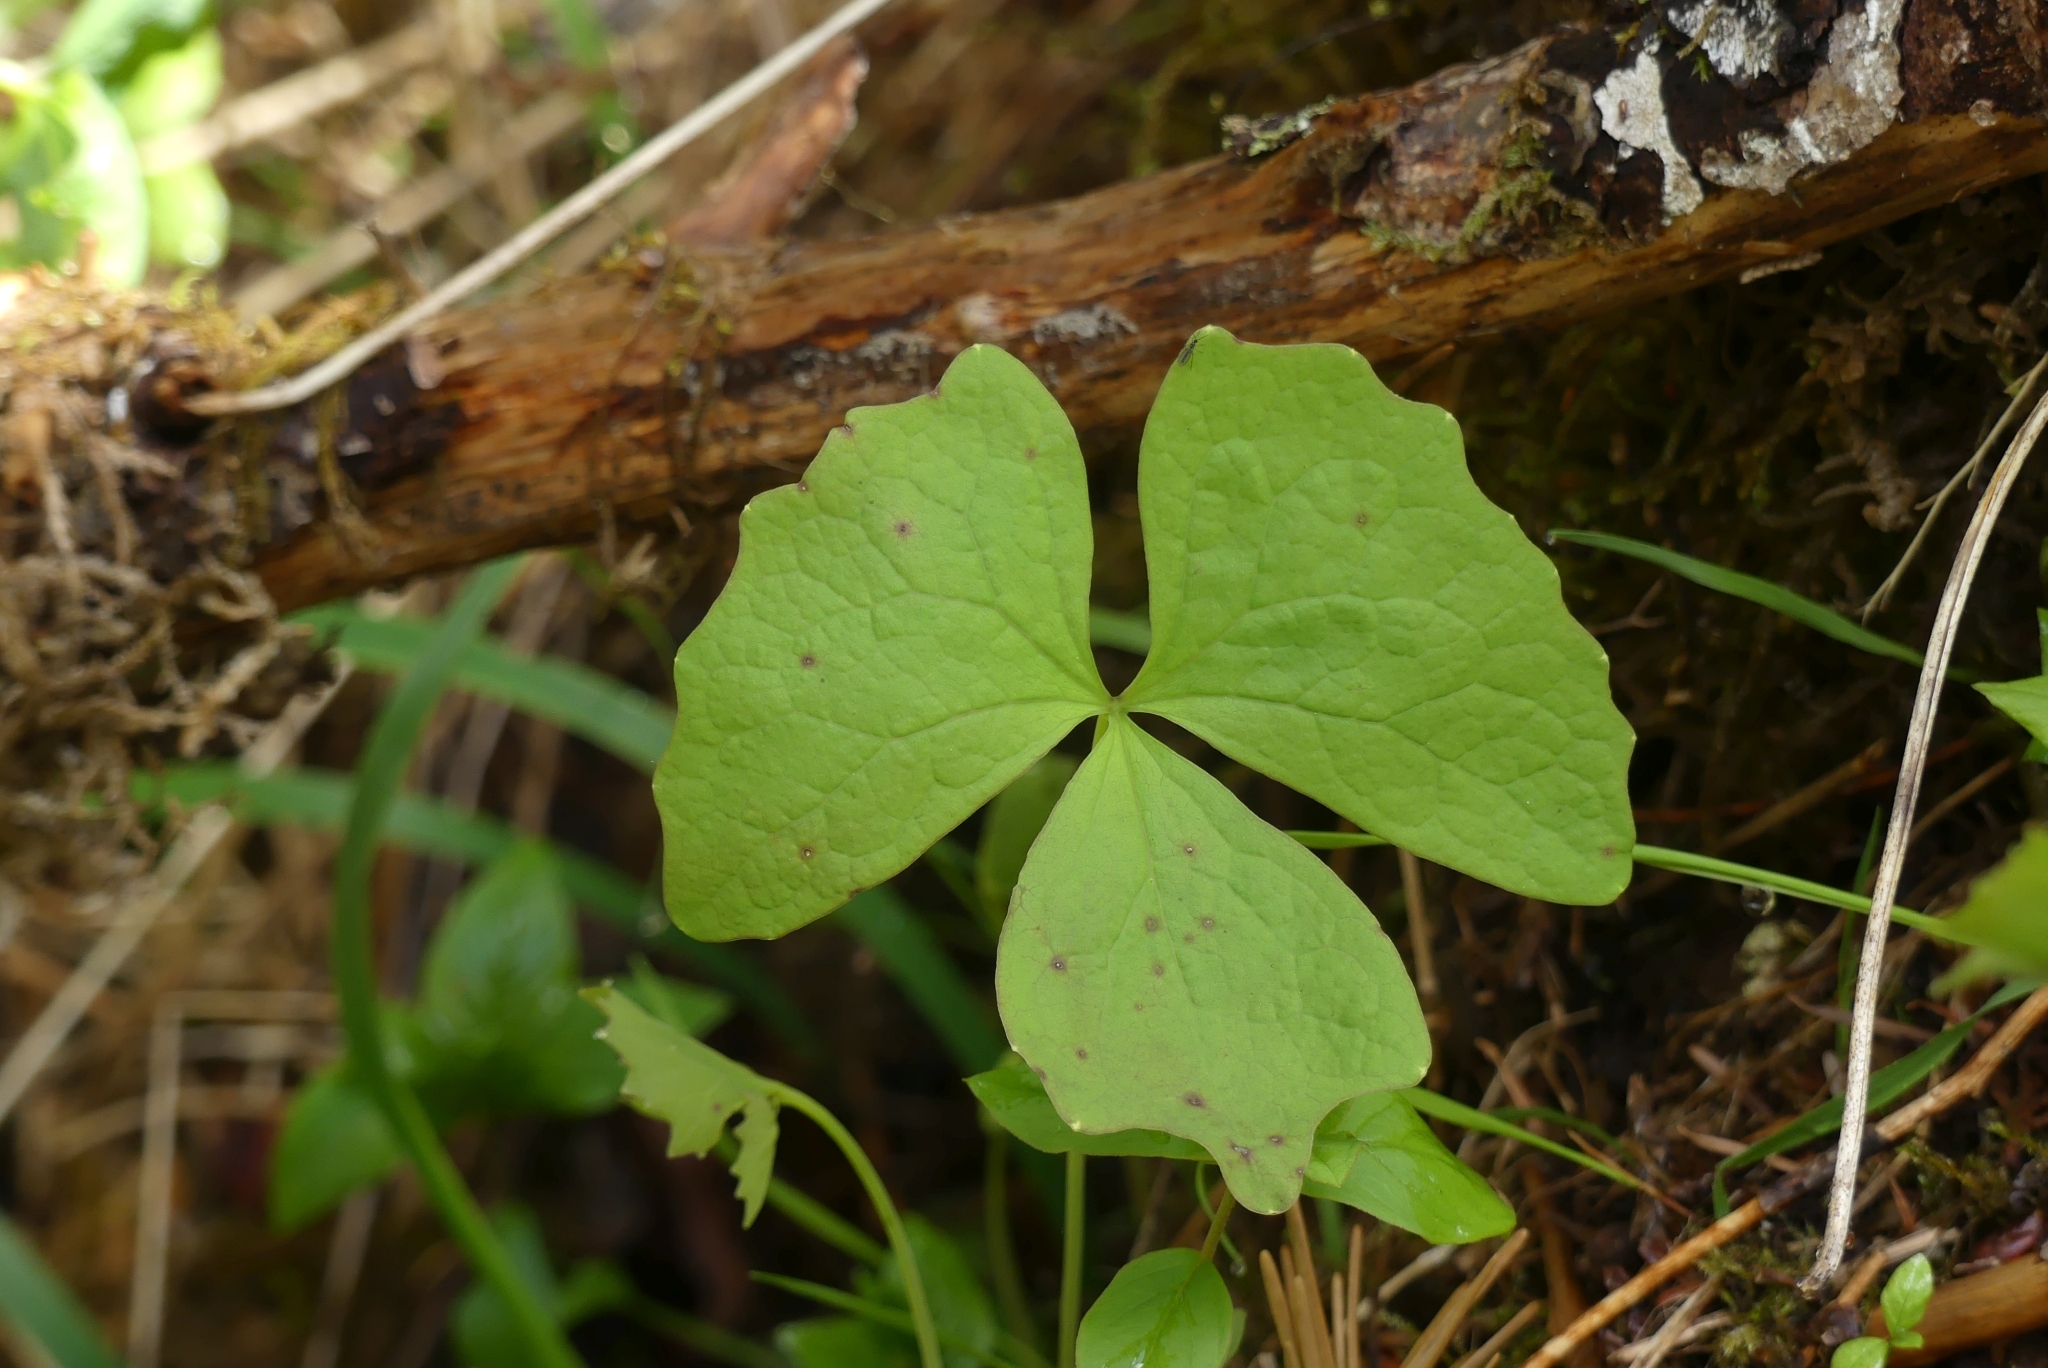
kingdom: Plantae
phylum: Tracheophyta
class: Magnoliopsida
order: Ranunculales
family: Berberidaceae
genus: Achlys
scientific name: Achlys triphylla
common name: Vanilla-leaf
